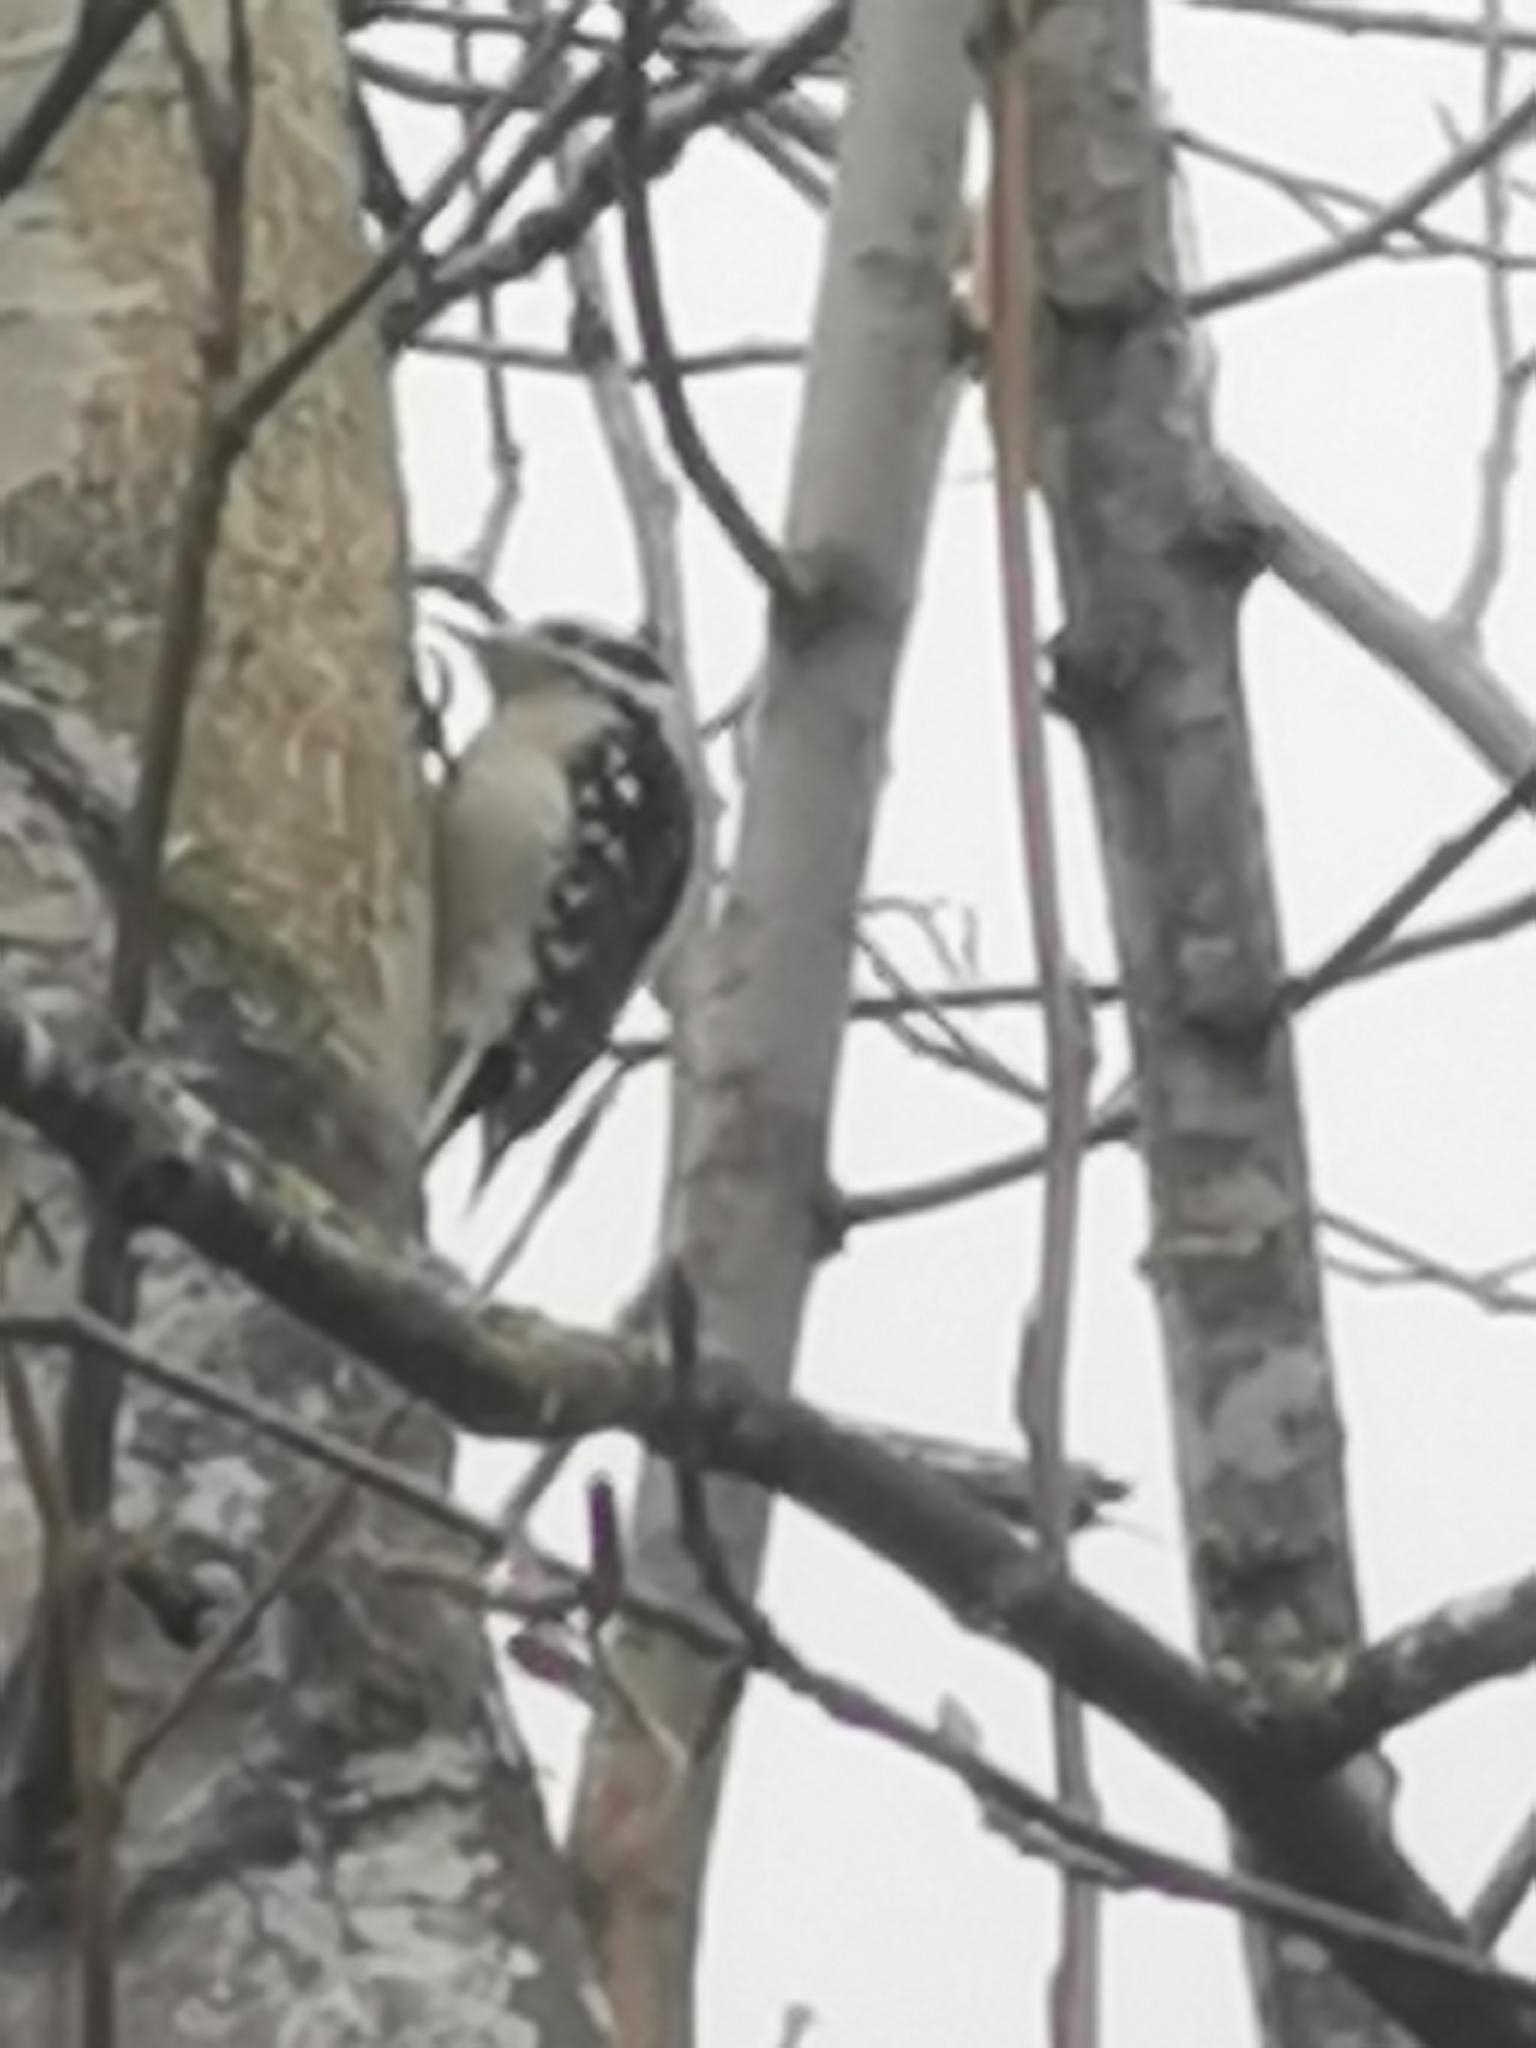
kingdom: Animalia
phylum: Chordata
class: Aves
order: Piciformes
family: Picidae
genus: Dryobates
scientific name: Dryobates pubescens
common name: Downy woodpecker
